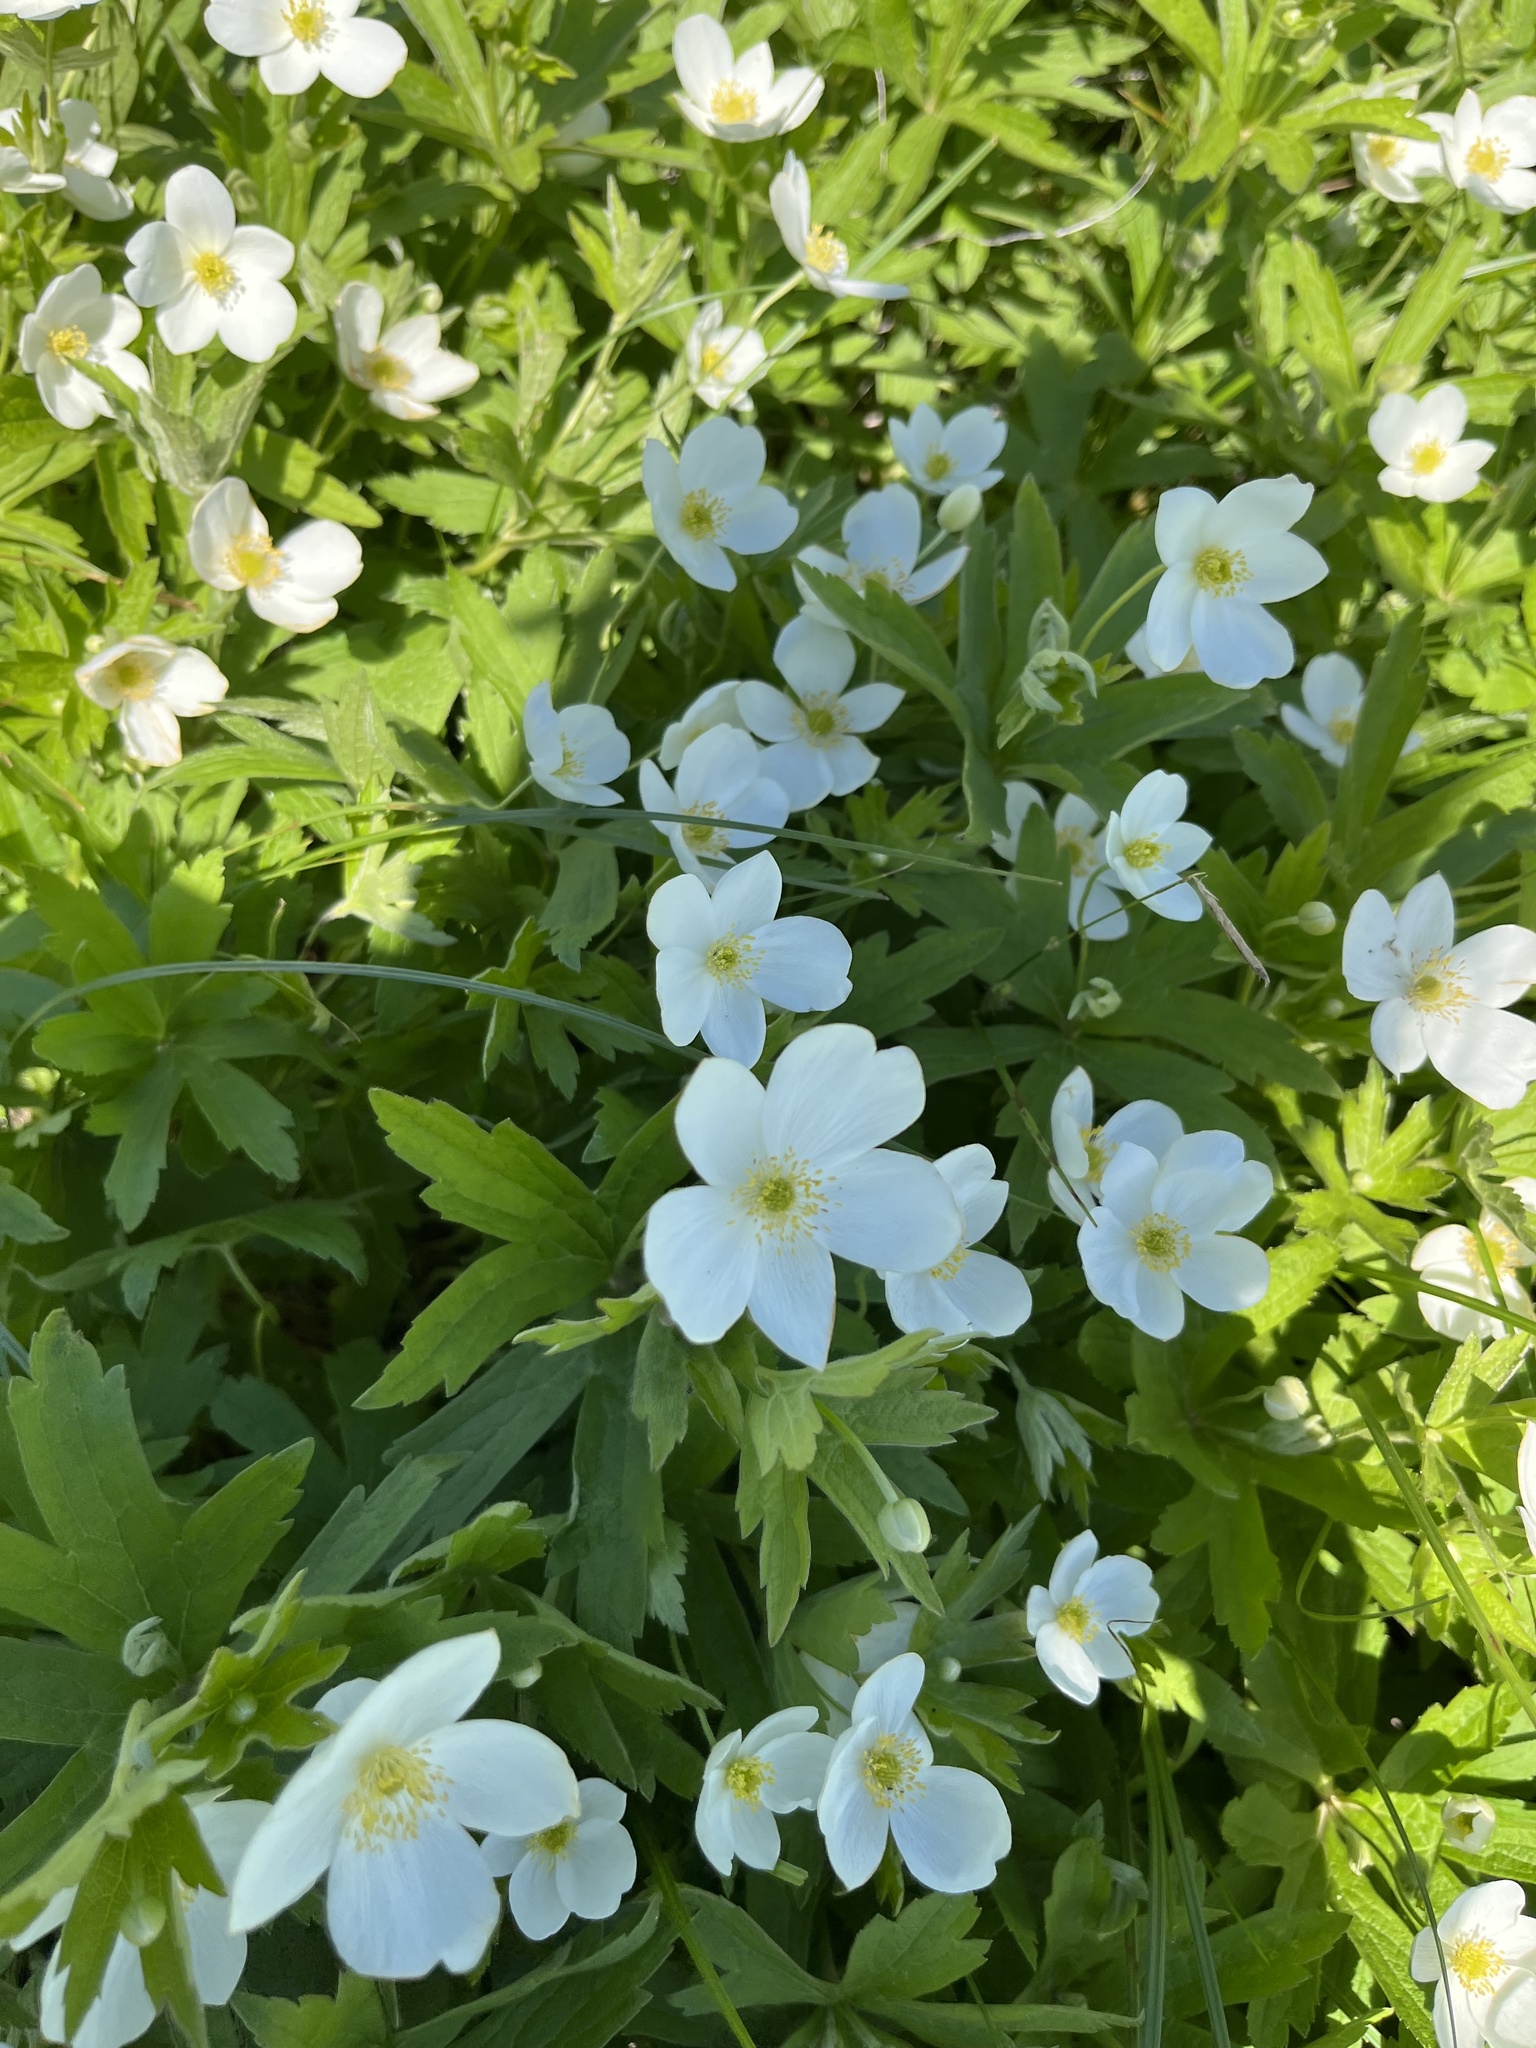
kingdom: Plantae
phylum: Tracheophyta
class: Magnoliopsida
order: Ranunculales
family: Ranunculaceae
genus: Anemonastrum
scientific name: Anemonastrum canadense
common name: Canada anemone
